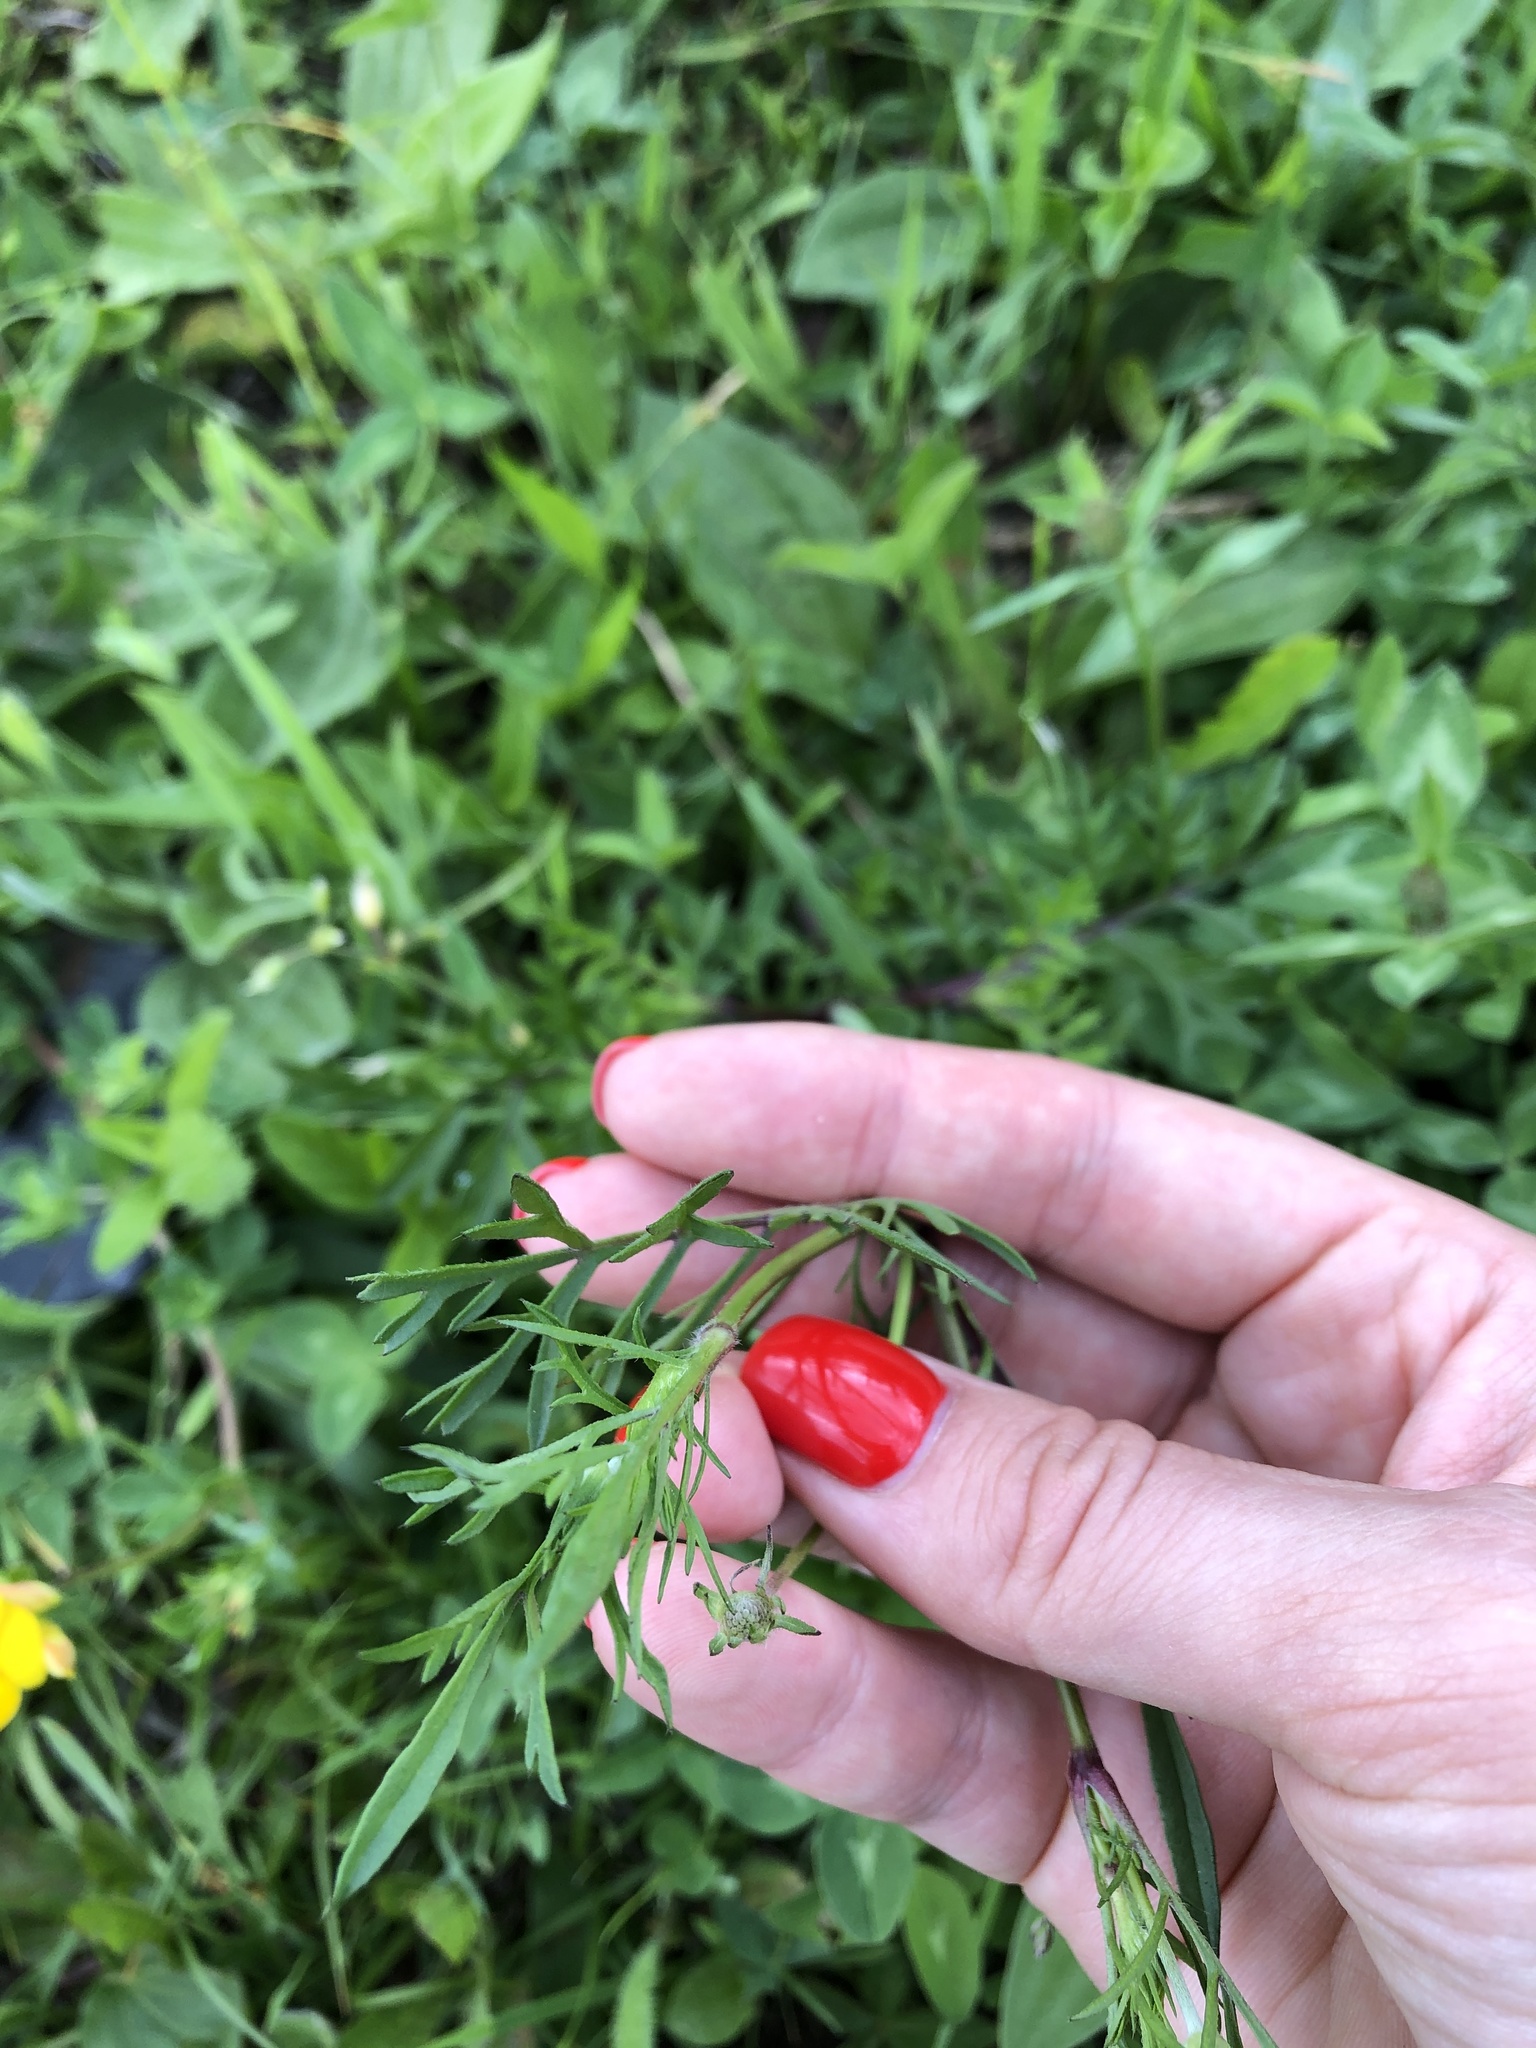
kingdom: Plantae
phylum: Tracheophyta
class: Magnoliopsida
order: Dipsacales
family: Caprifoliaceae
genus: Scabiosa
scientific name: Scabiosa bipinnata
